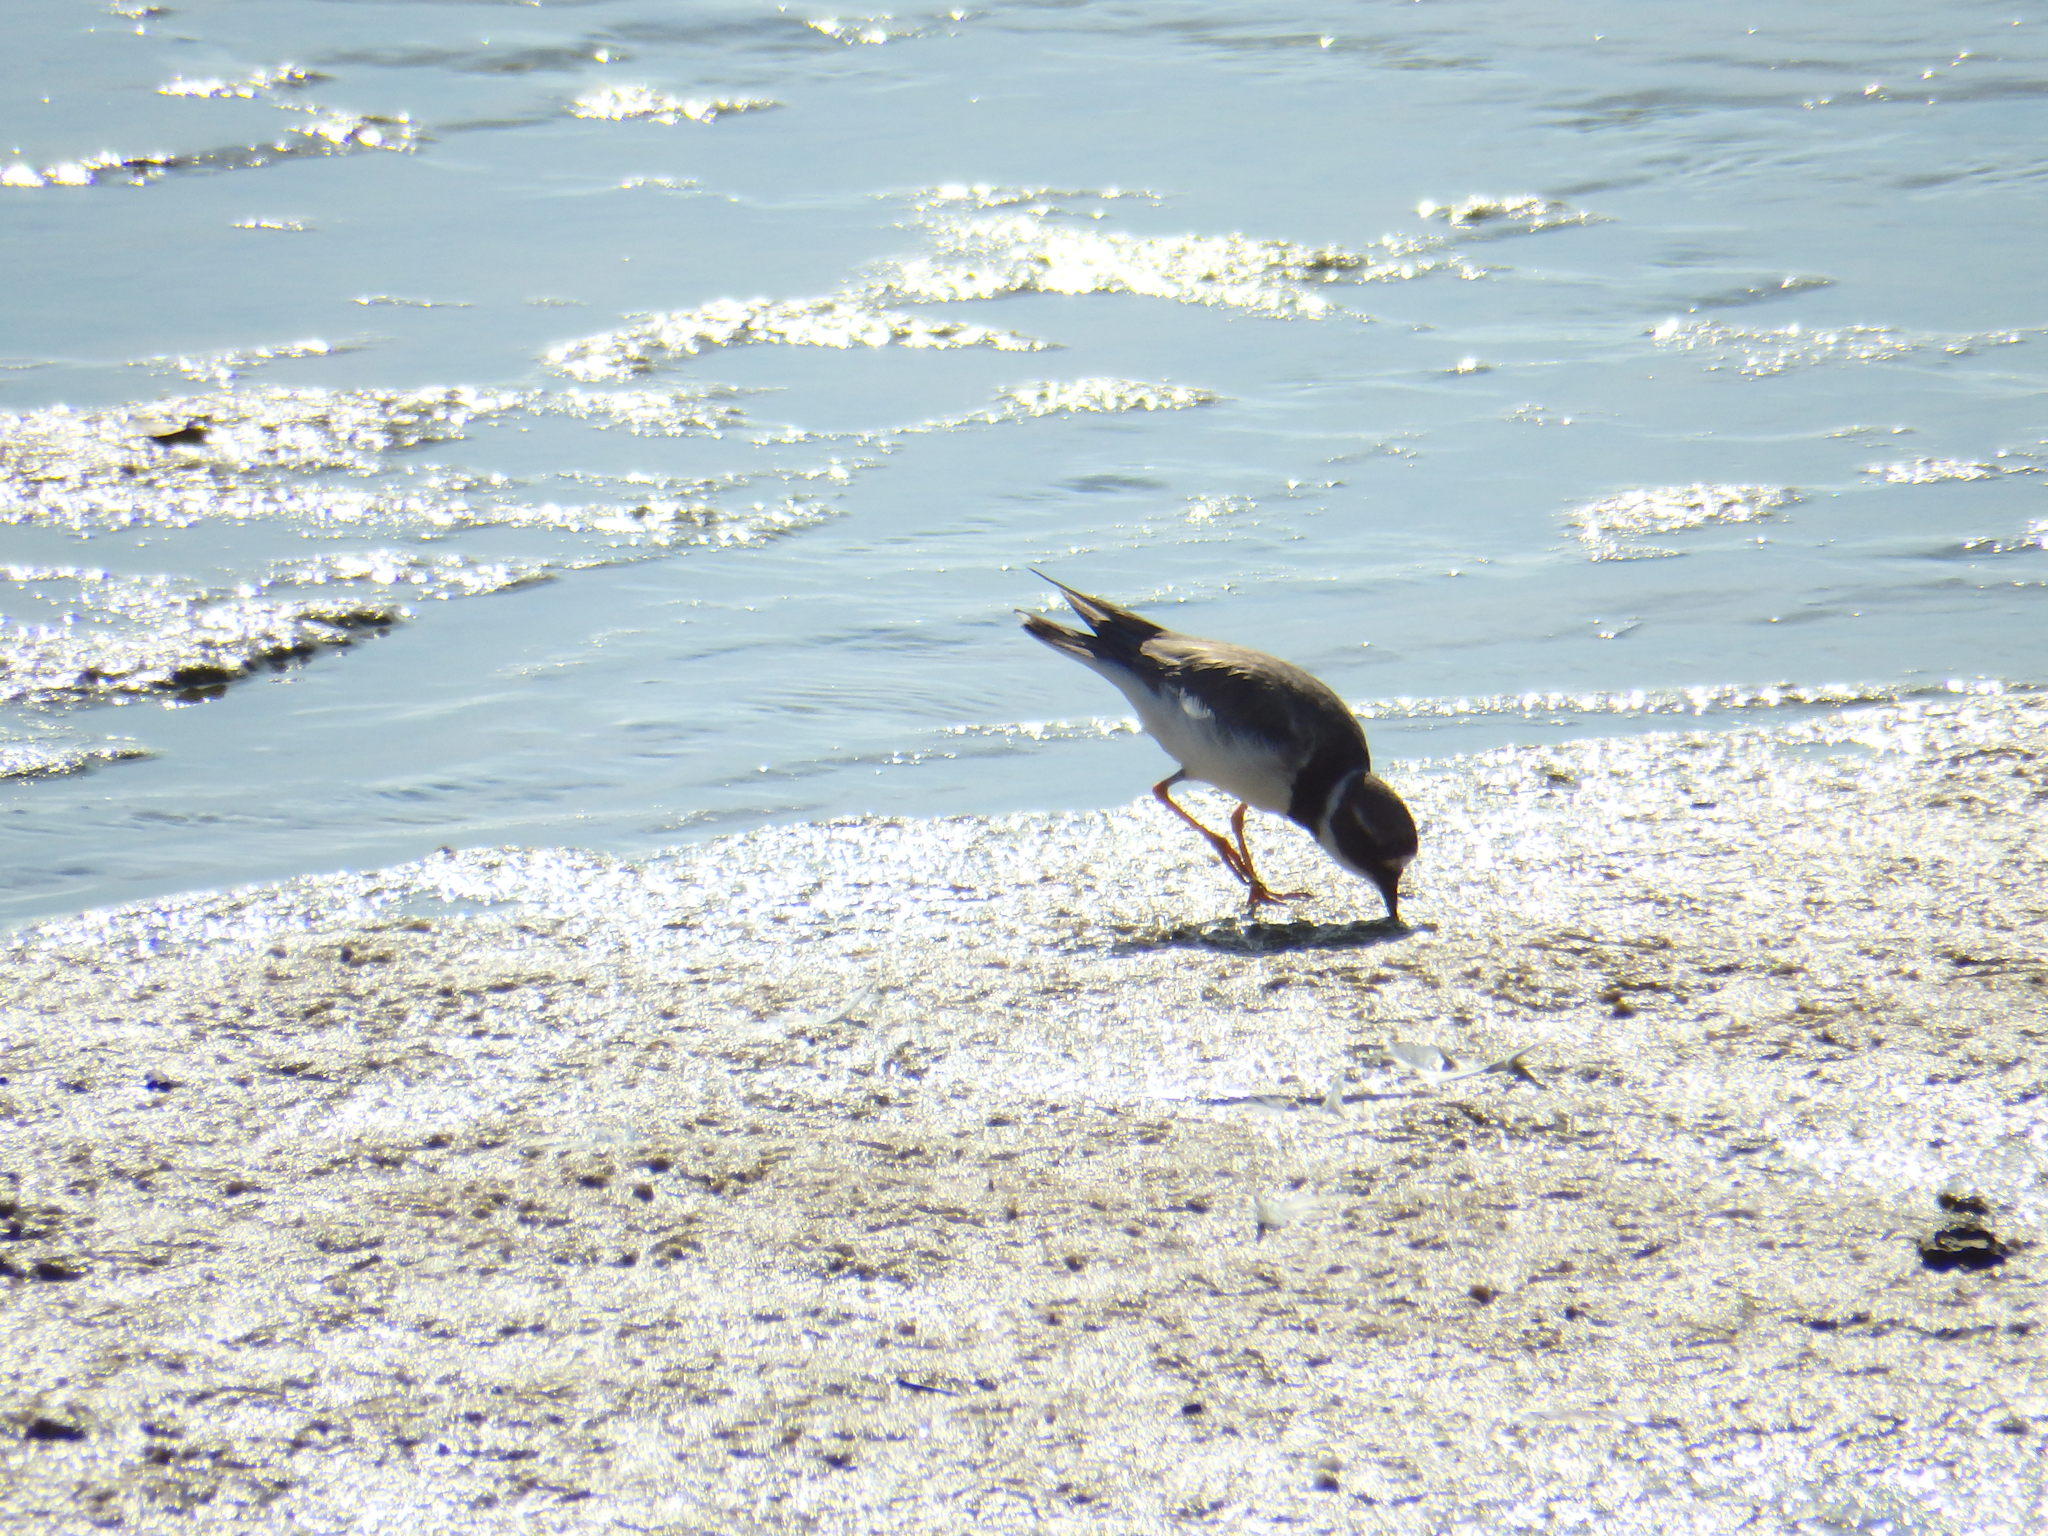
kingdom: Animalia
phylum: Chordata
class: Aves
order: Charadriiformes
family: Charadriidae
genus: Charadrius
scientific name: Charadrius hiaticula
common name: Common ringed plover
